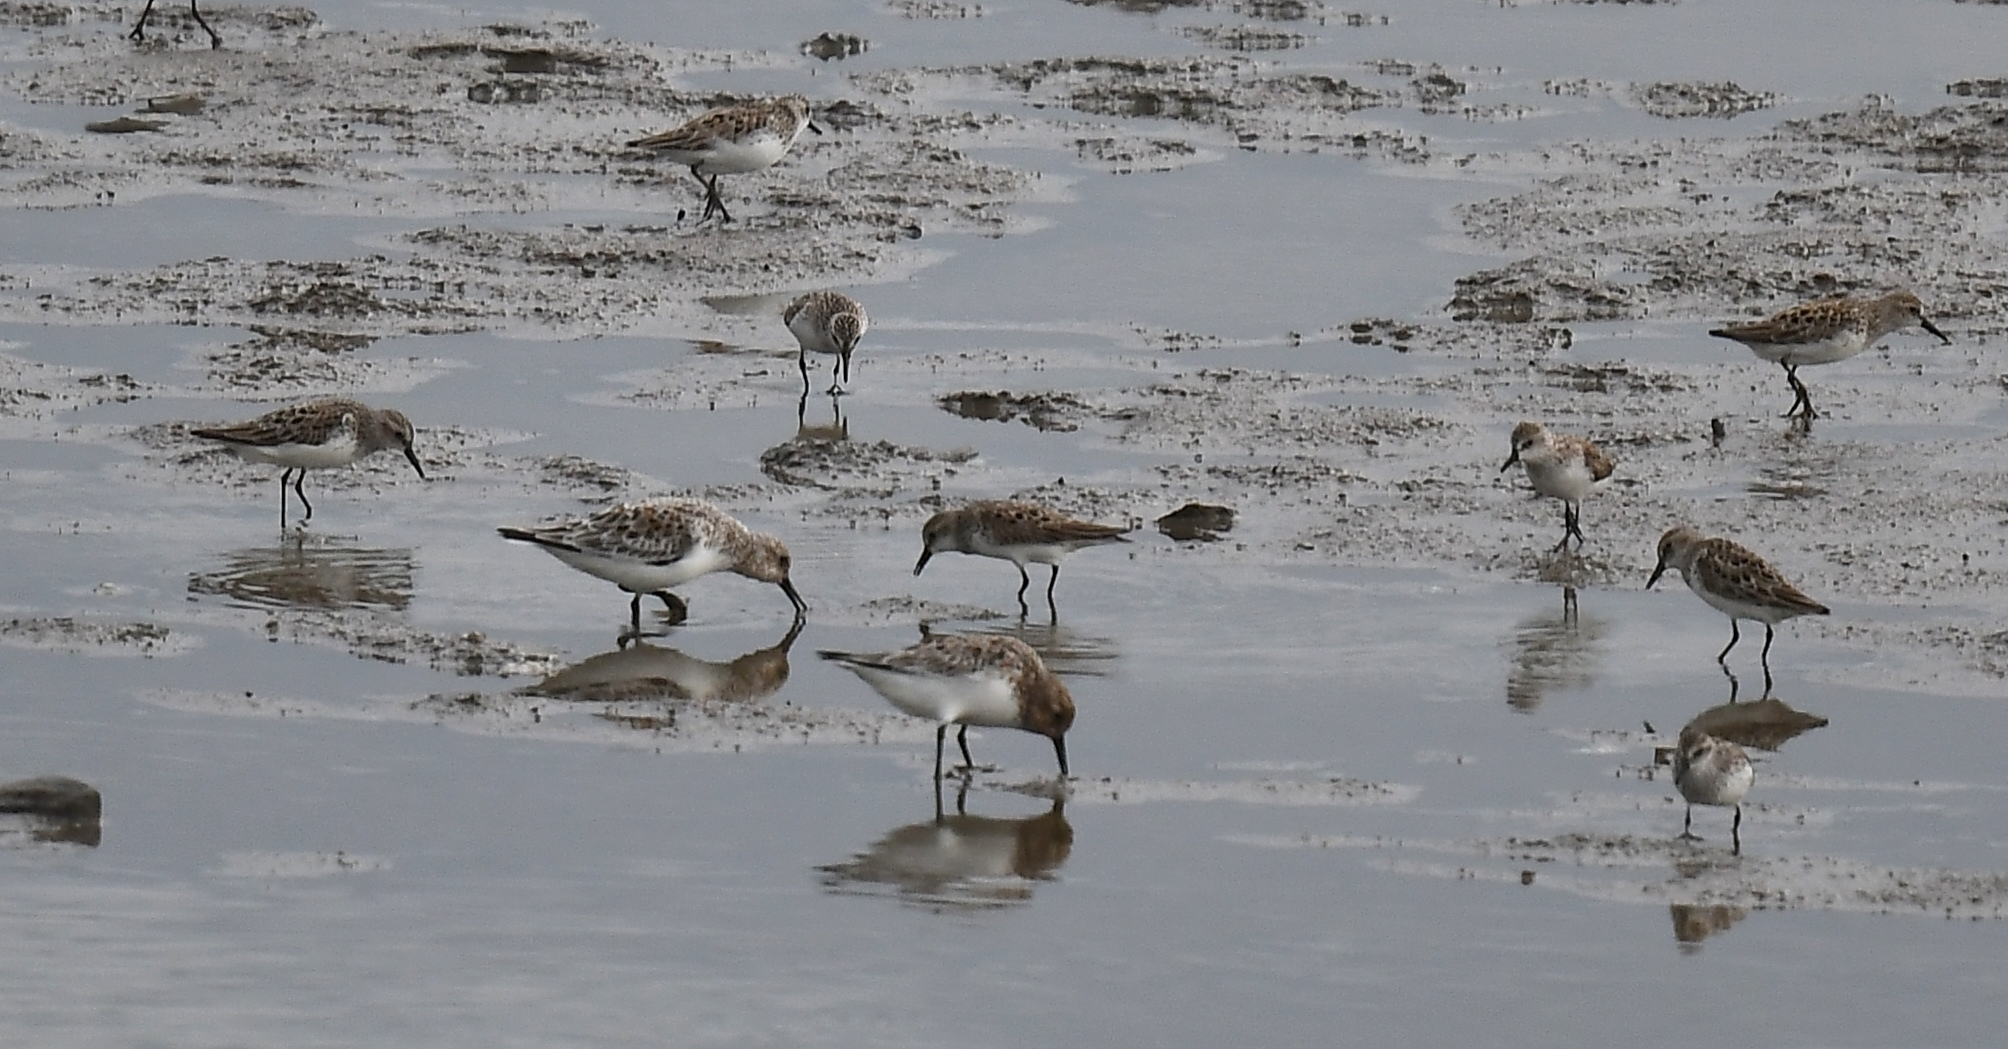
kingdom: Animalia
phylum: Chordata
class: Aves
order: Charadriiformes
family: Scolopacidae
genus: Calidris
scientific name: Calidris alba
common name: Sanderling
